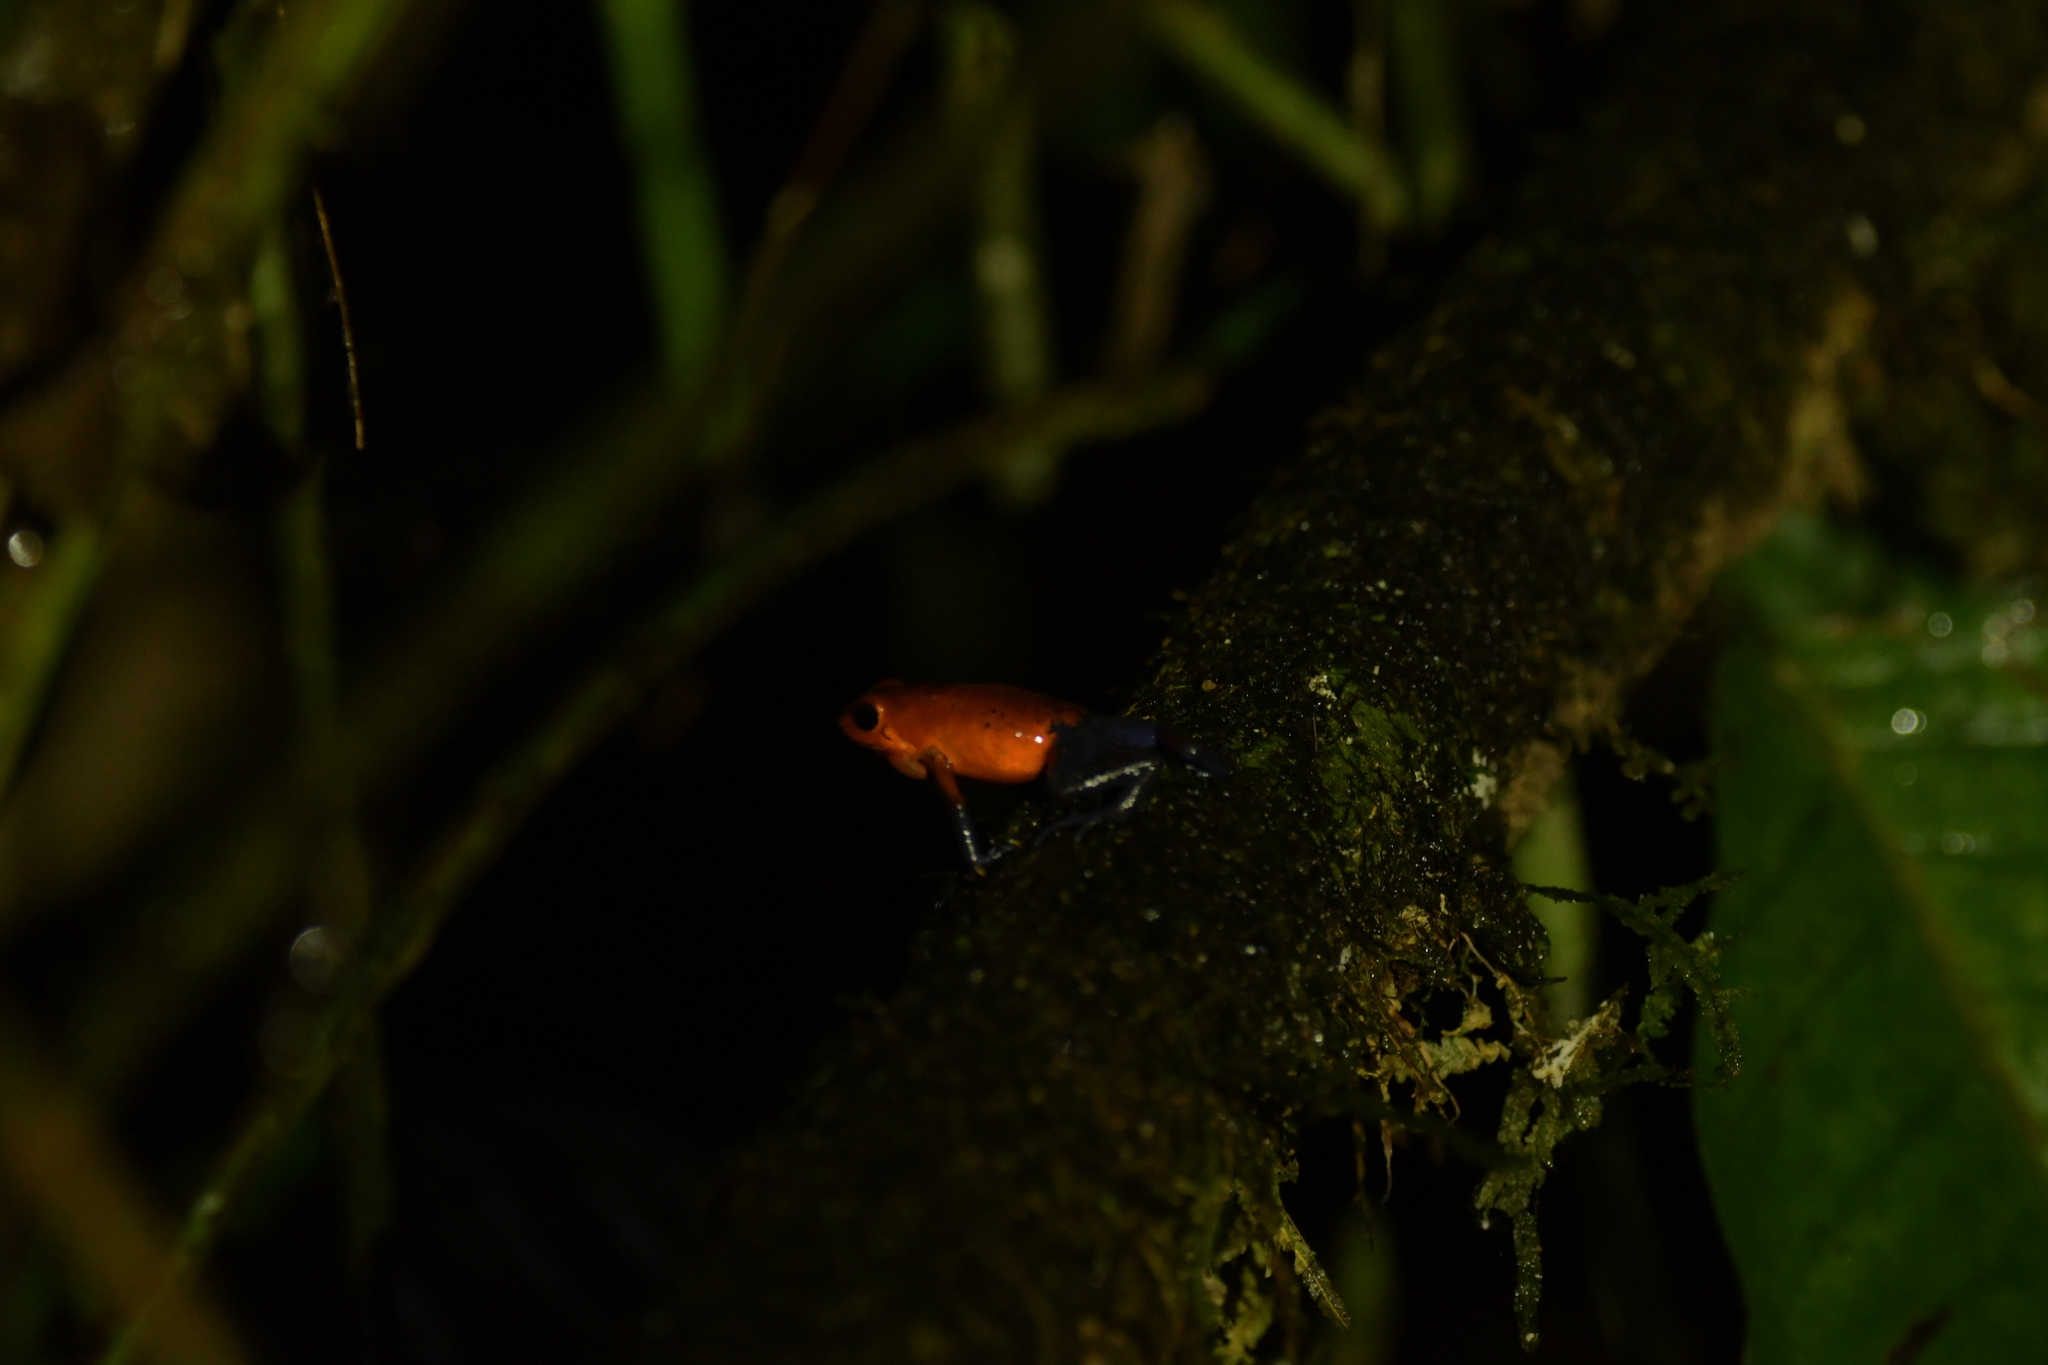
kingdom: Animalia
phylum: Chordata
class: Amphibia
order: Anura
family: Dendrobatidae
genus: Oophaga
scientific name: Oophaga pumilio
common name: Flaming poison frog
